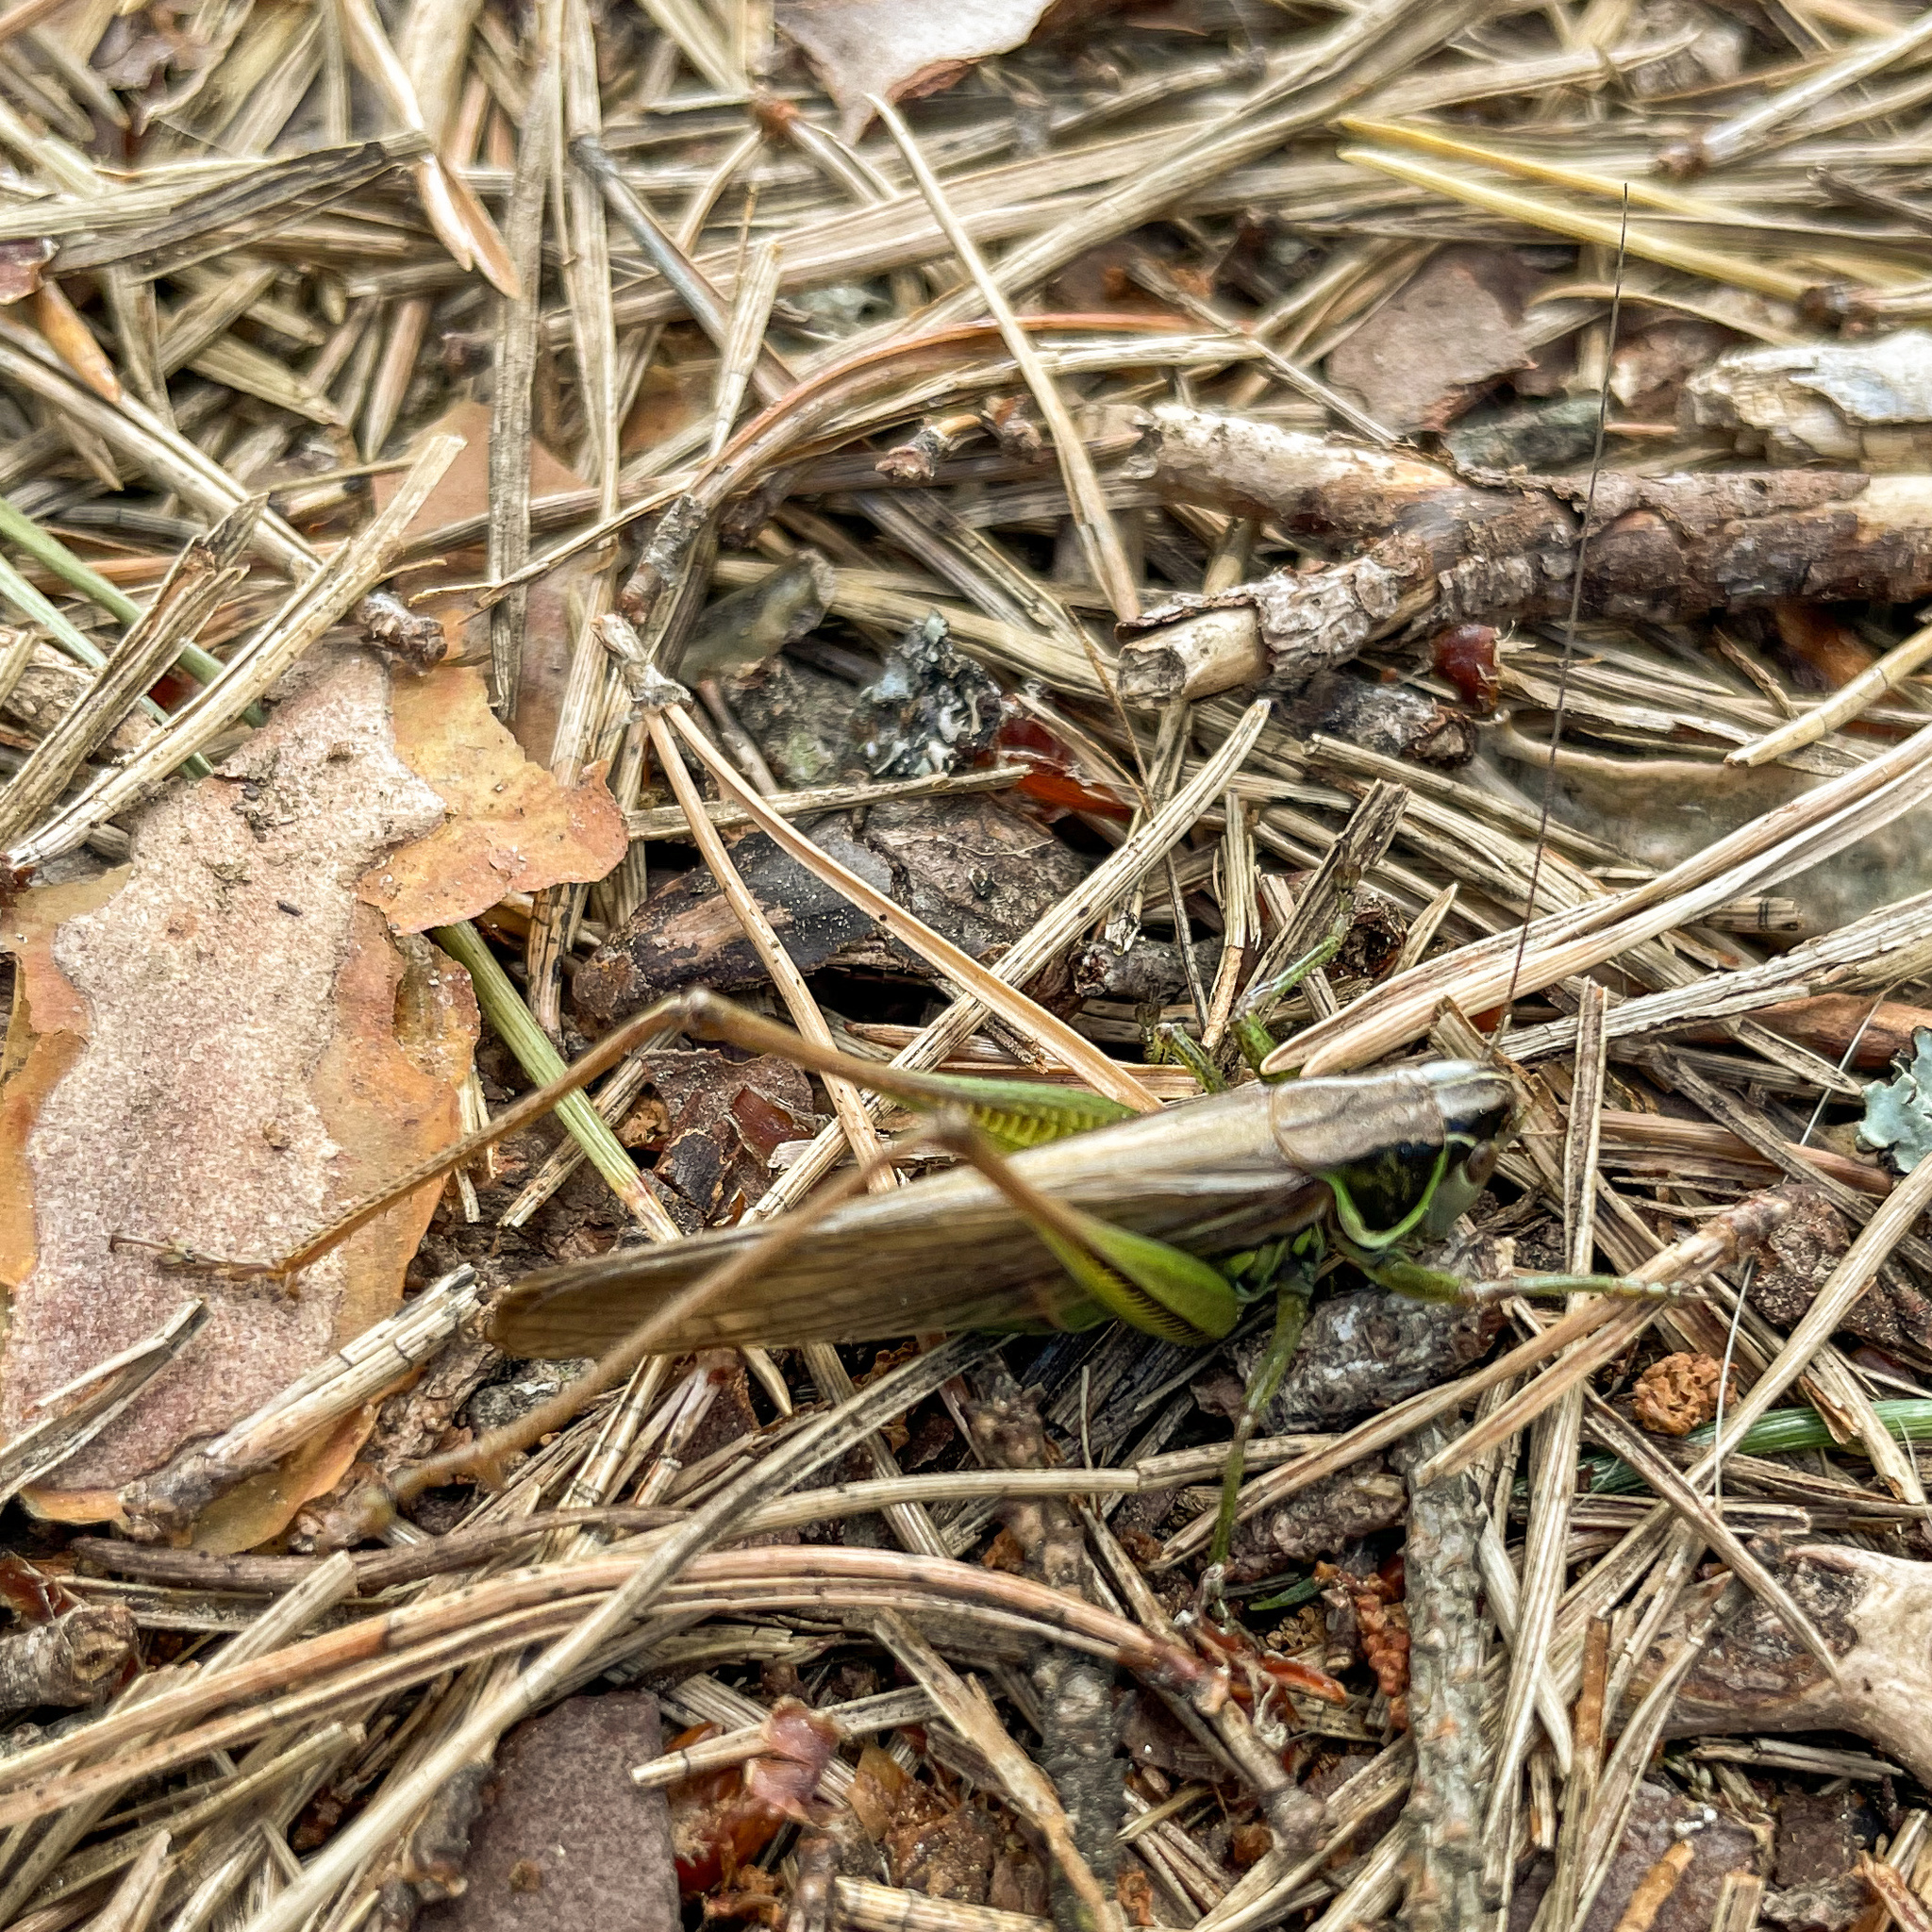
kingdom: Animalia
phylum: Arthropoda
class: Insecta
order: Orthoptera
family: Tettigoniidae
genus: Roeseliana
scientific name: Roeseliana roeselii
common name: Roesel's bush cricket
